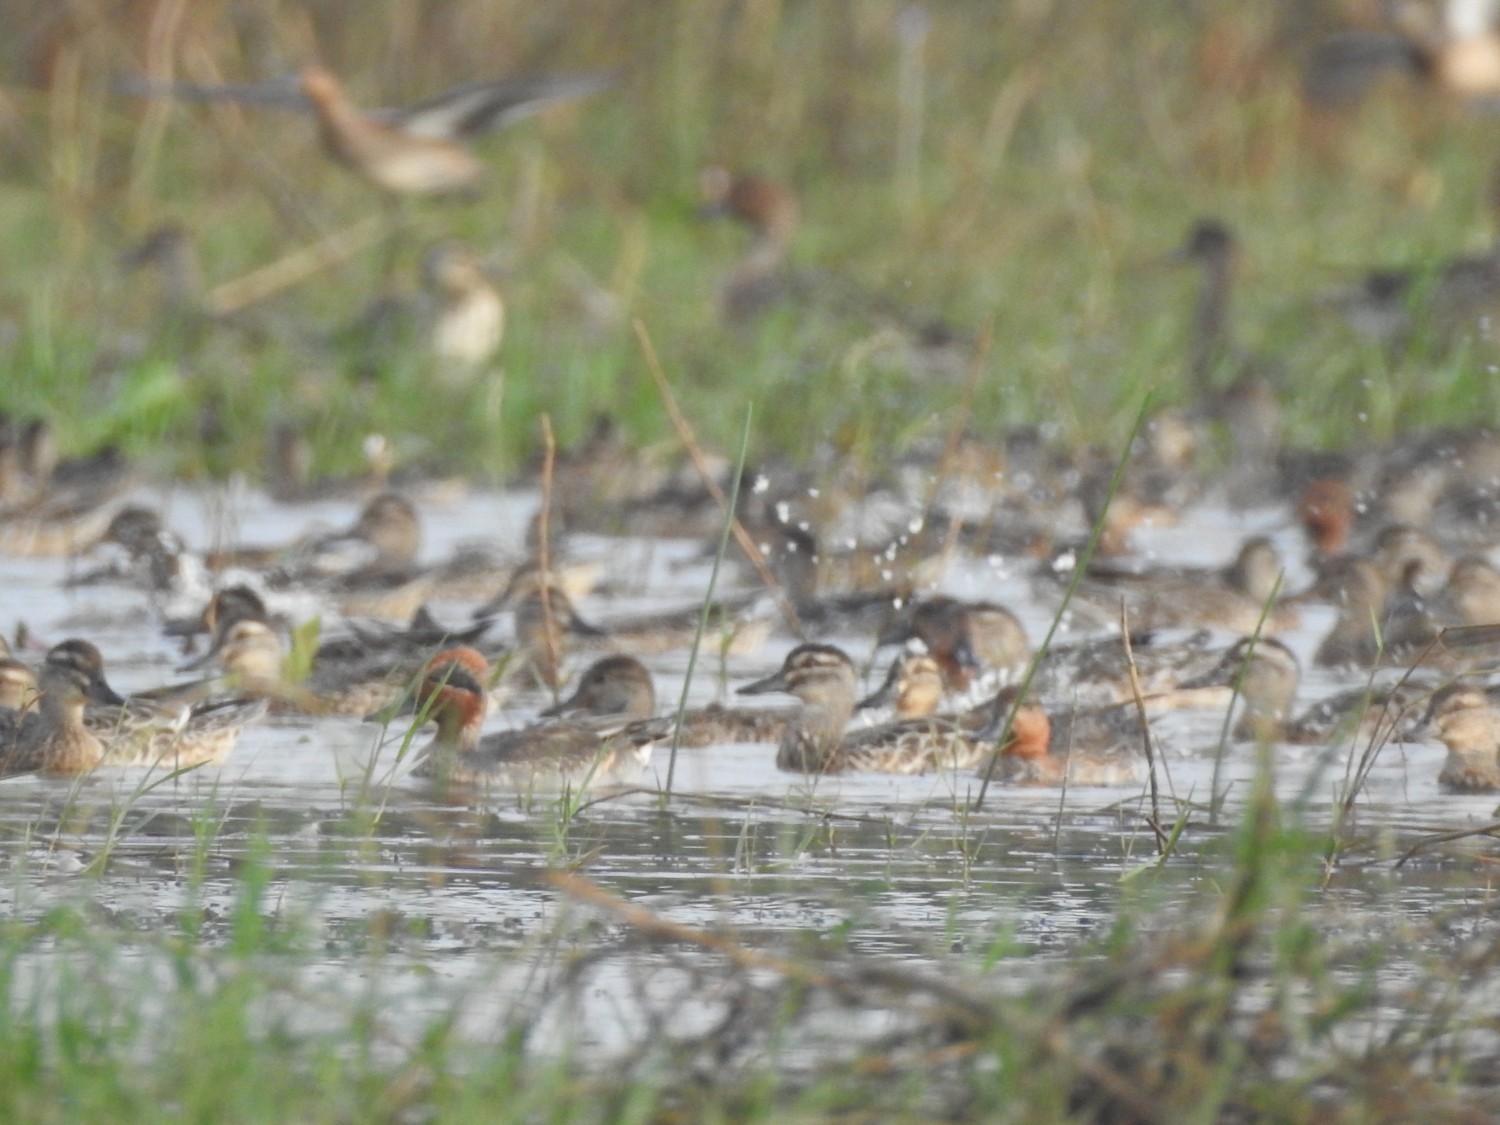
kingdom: Animalia
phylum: Chordata
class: Aves
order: Anseriformes
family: Anatidae
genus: Anas
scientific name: Anas crecca
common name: Eurasian teal
